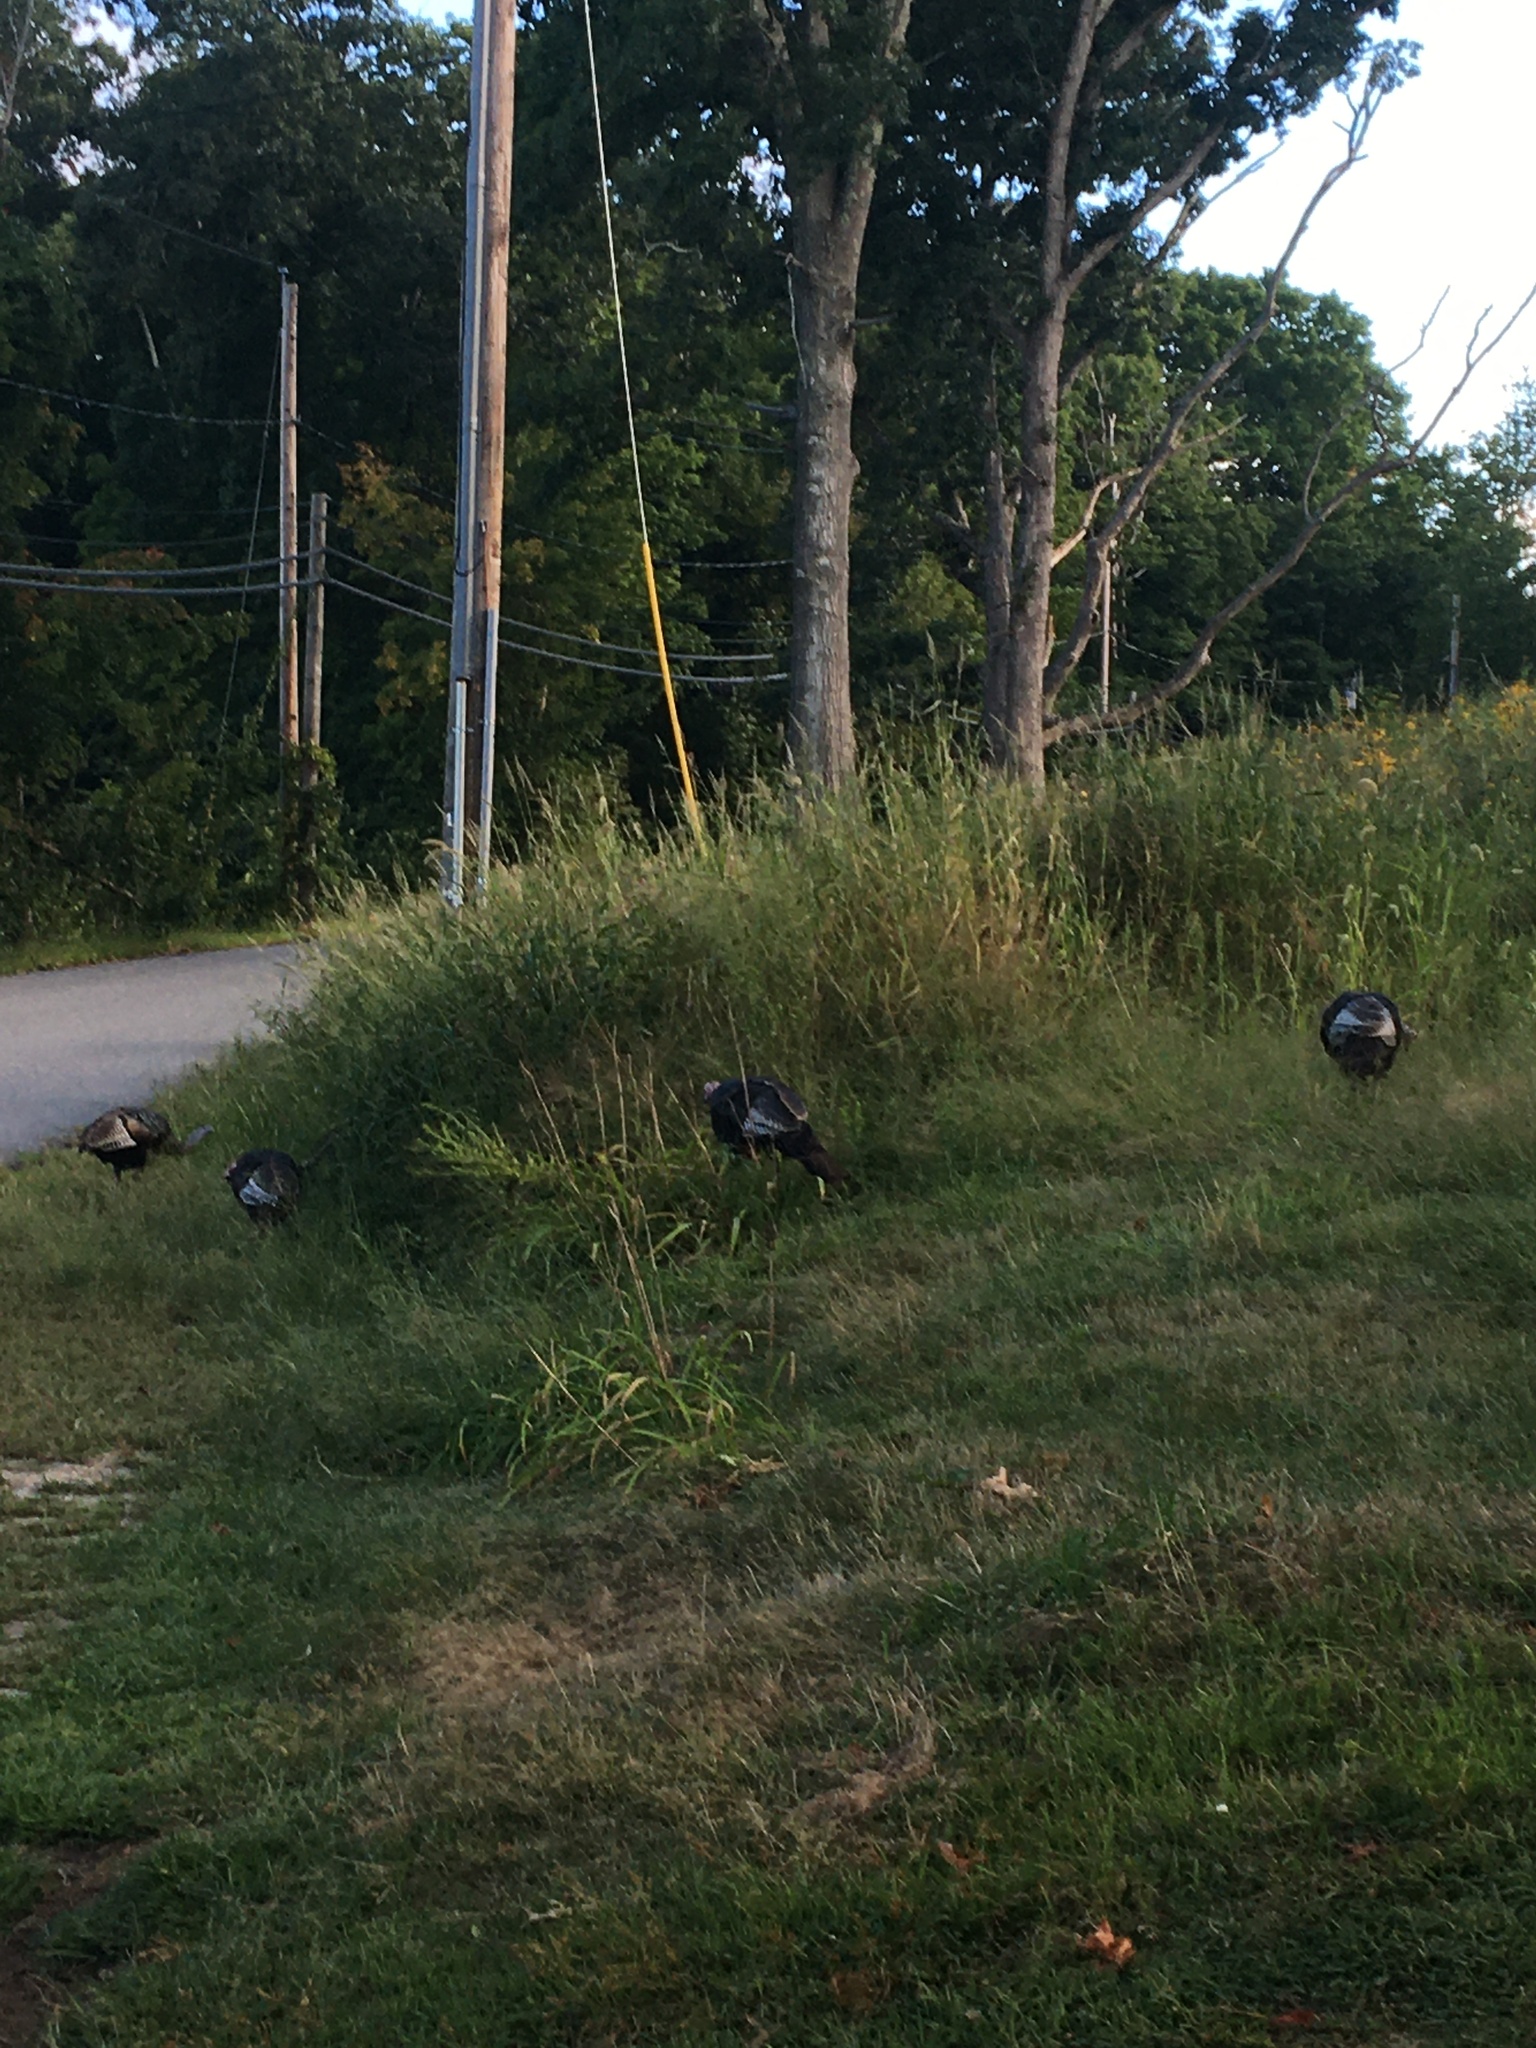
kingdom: Animalia
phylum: Chordata
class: Aves
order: Galliformes
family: Phasianidae
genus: Meleagris
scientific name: Meleagris gallopavo
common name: Wild turkey
